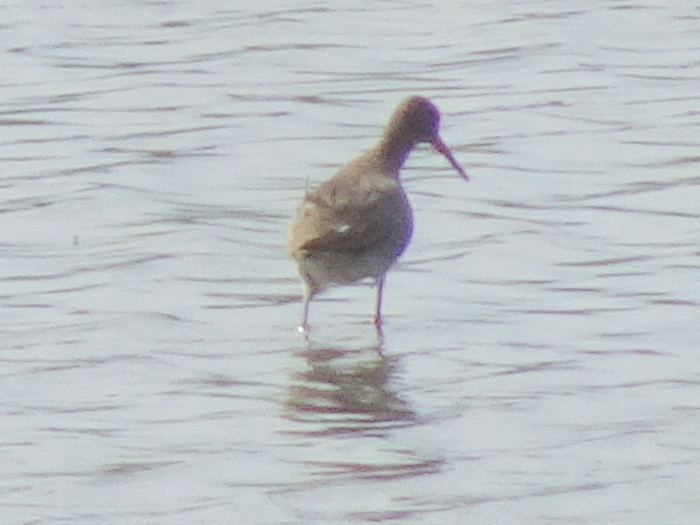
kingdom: Animalia
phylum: Chordata
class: Aves
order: Charadriiformes
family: Scolopacidae
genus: Tringa
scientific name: Tringa totanus
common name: Common redshank
